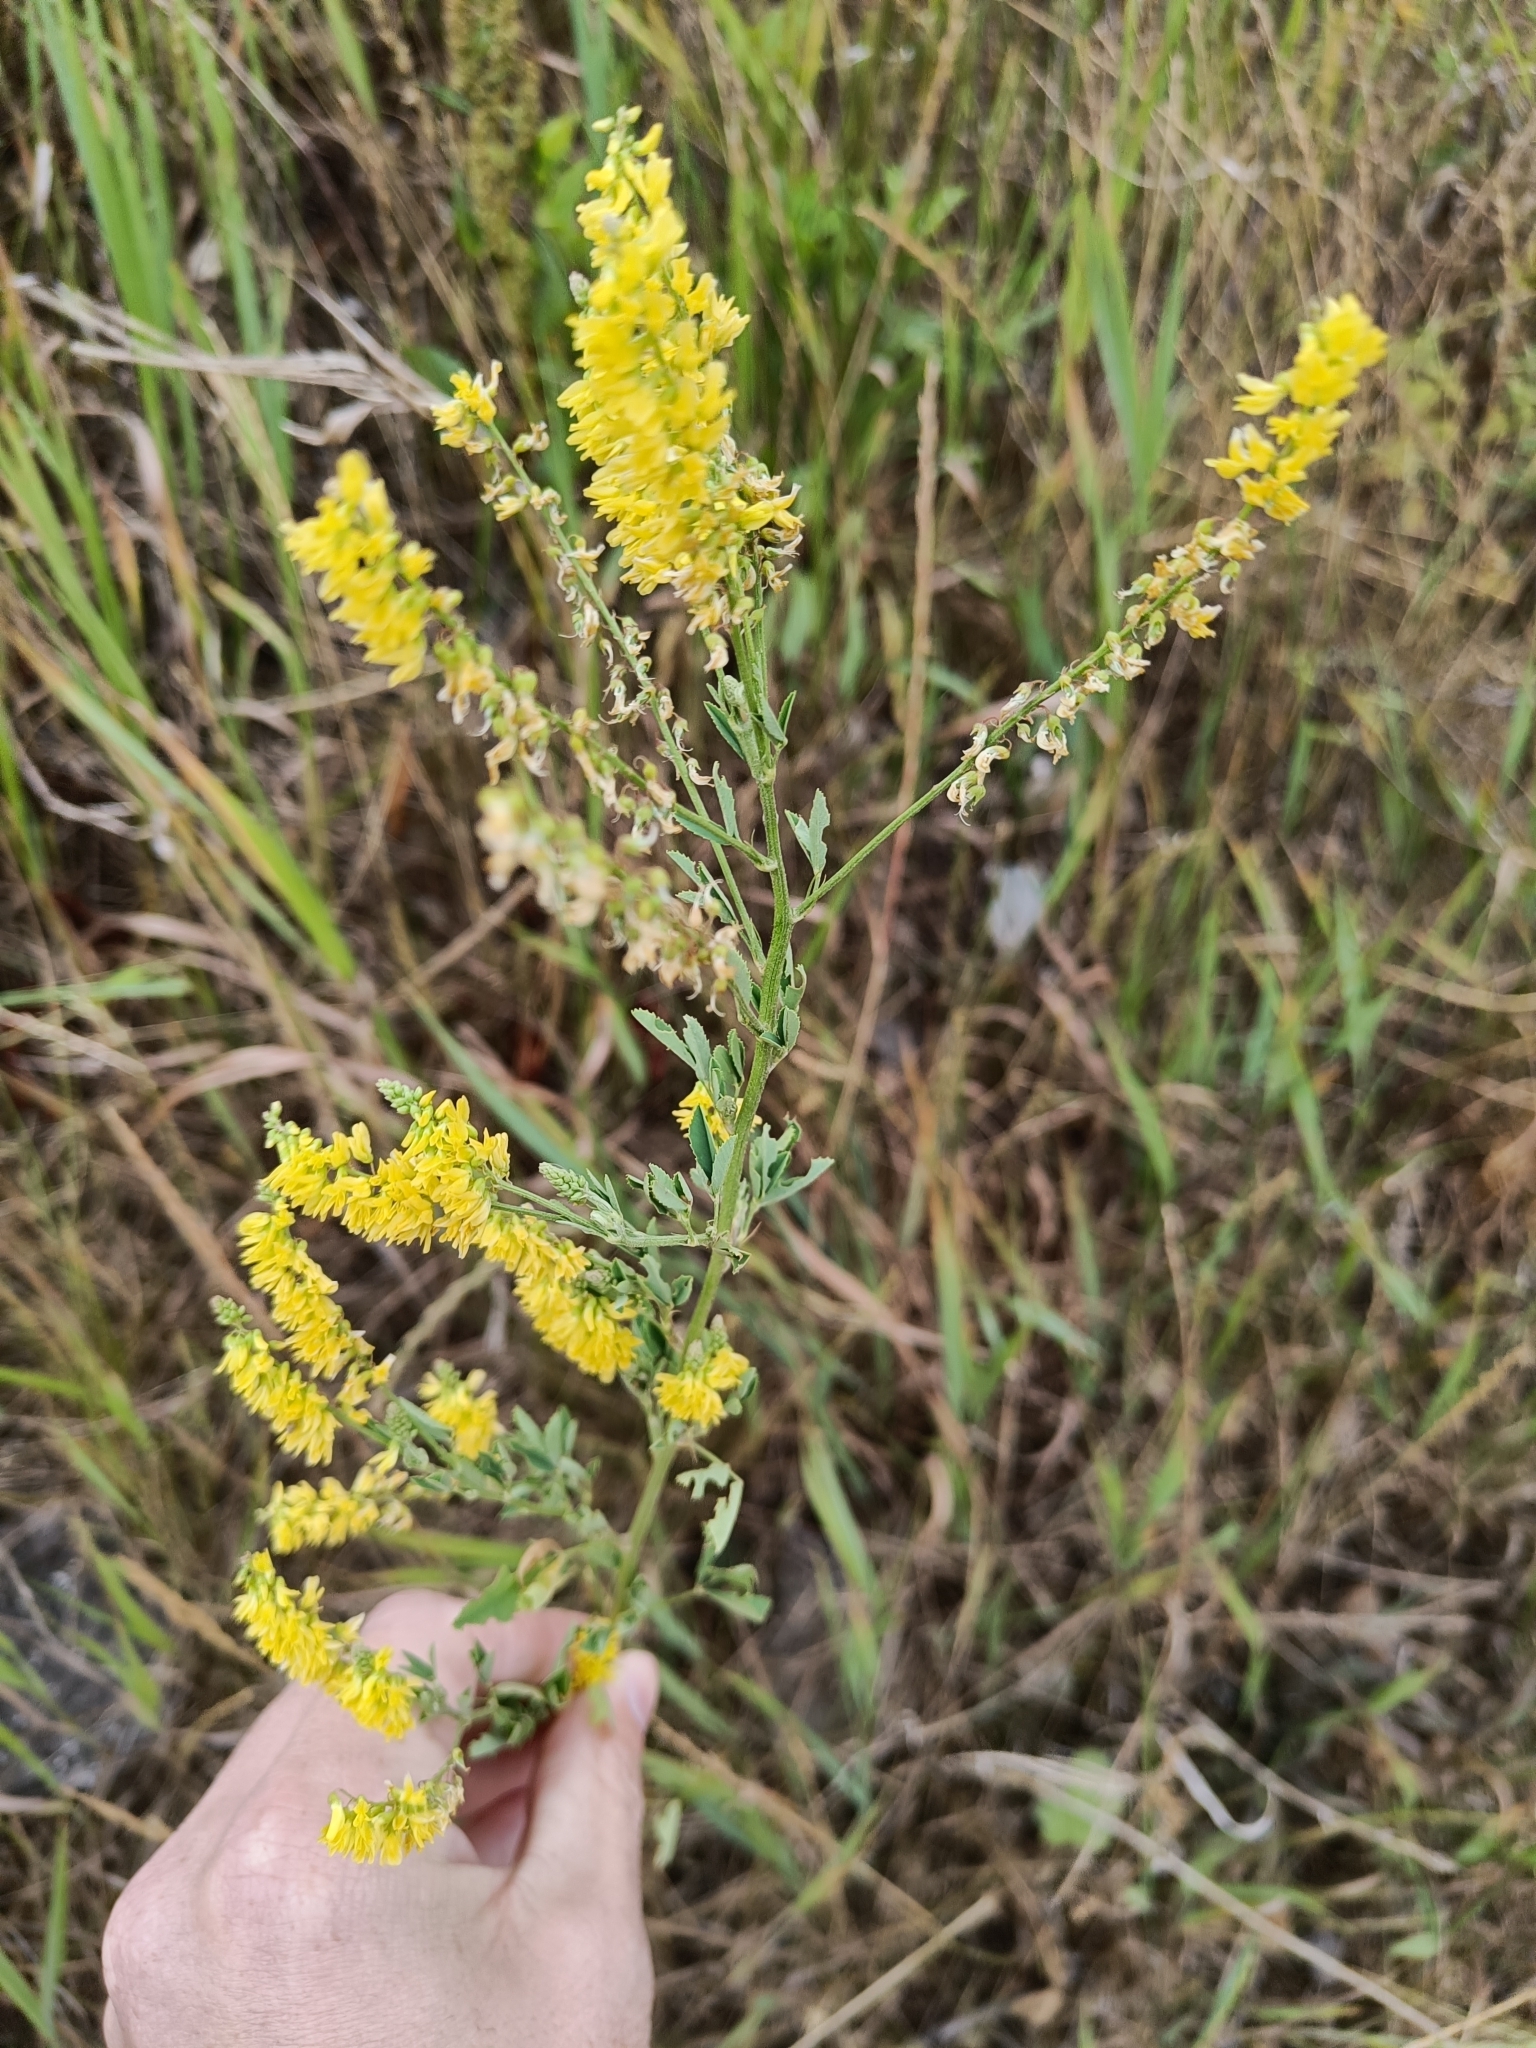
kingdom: Plantae
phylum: Tracheophyta
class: Magnoliopsida
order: Fabales
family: Fabaceae
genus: Melilotus
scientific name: Melilotus officinalis
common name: Sweetclover
